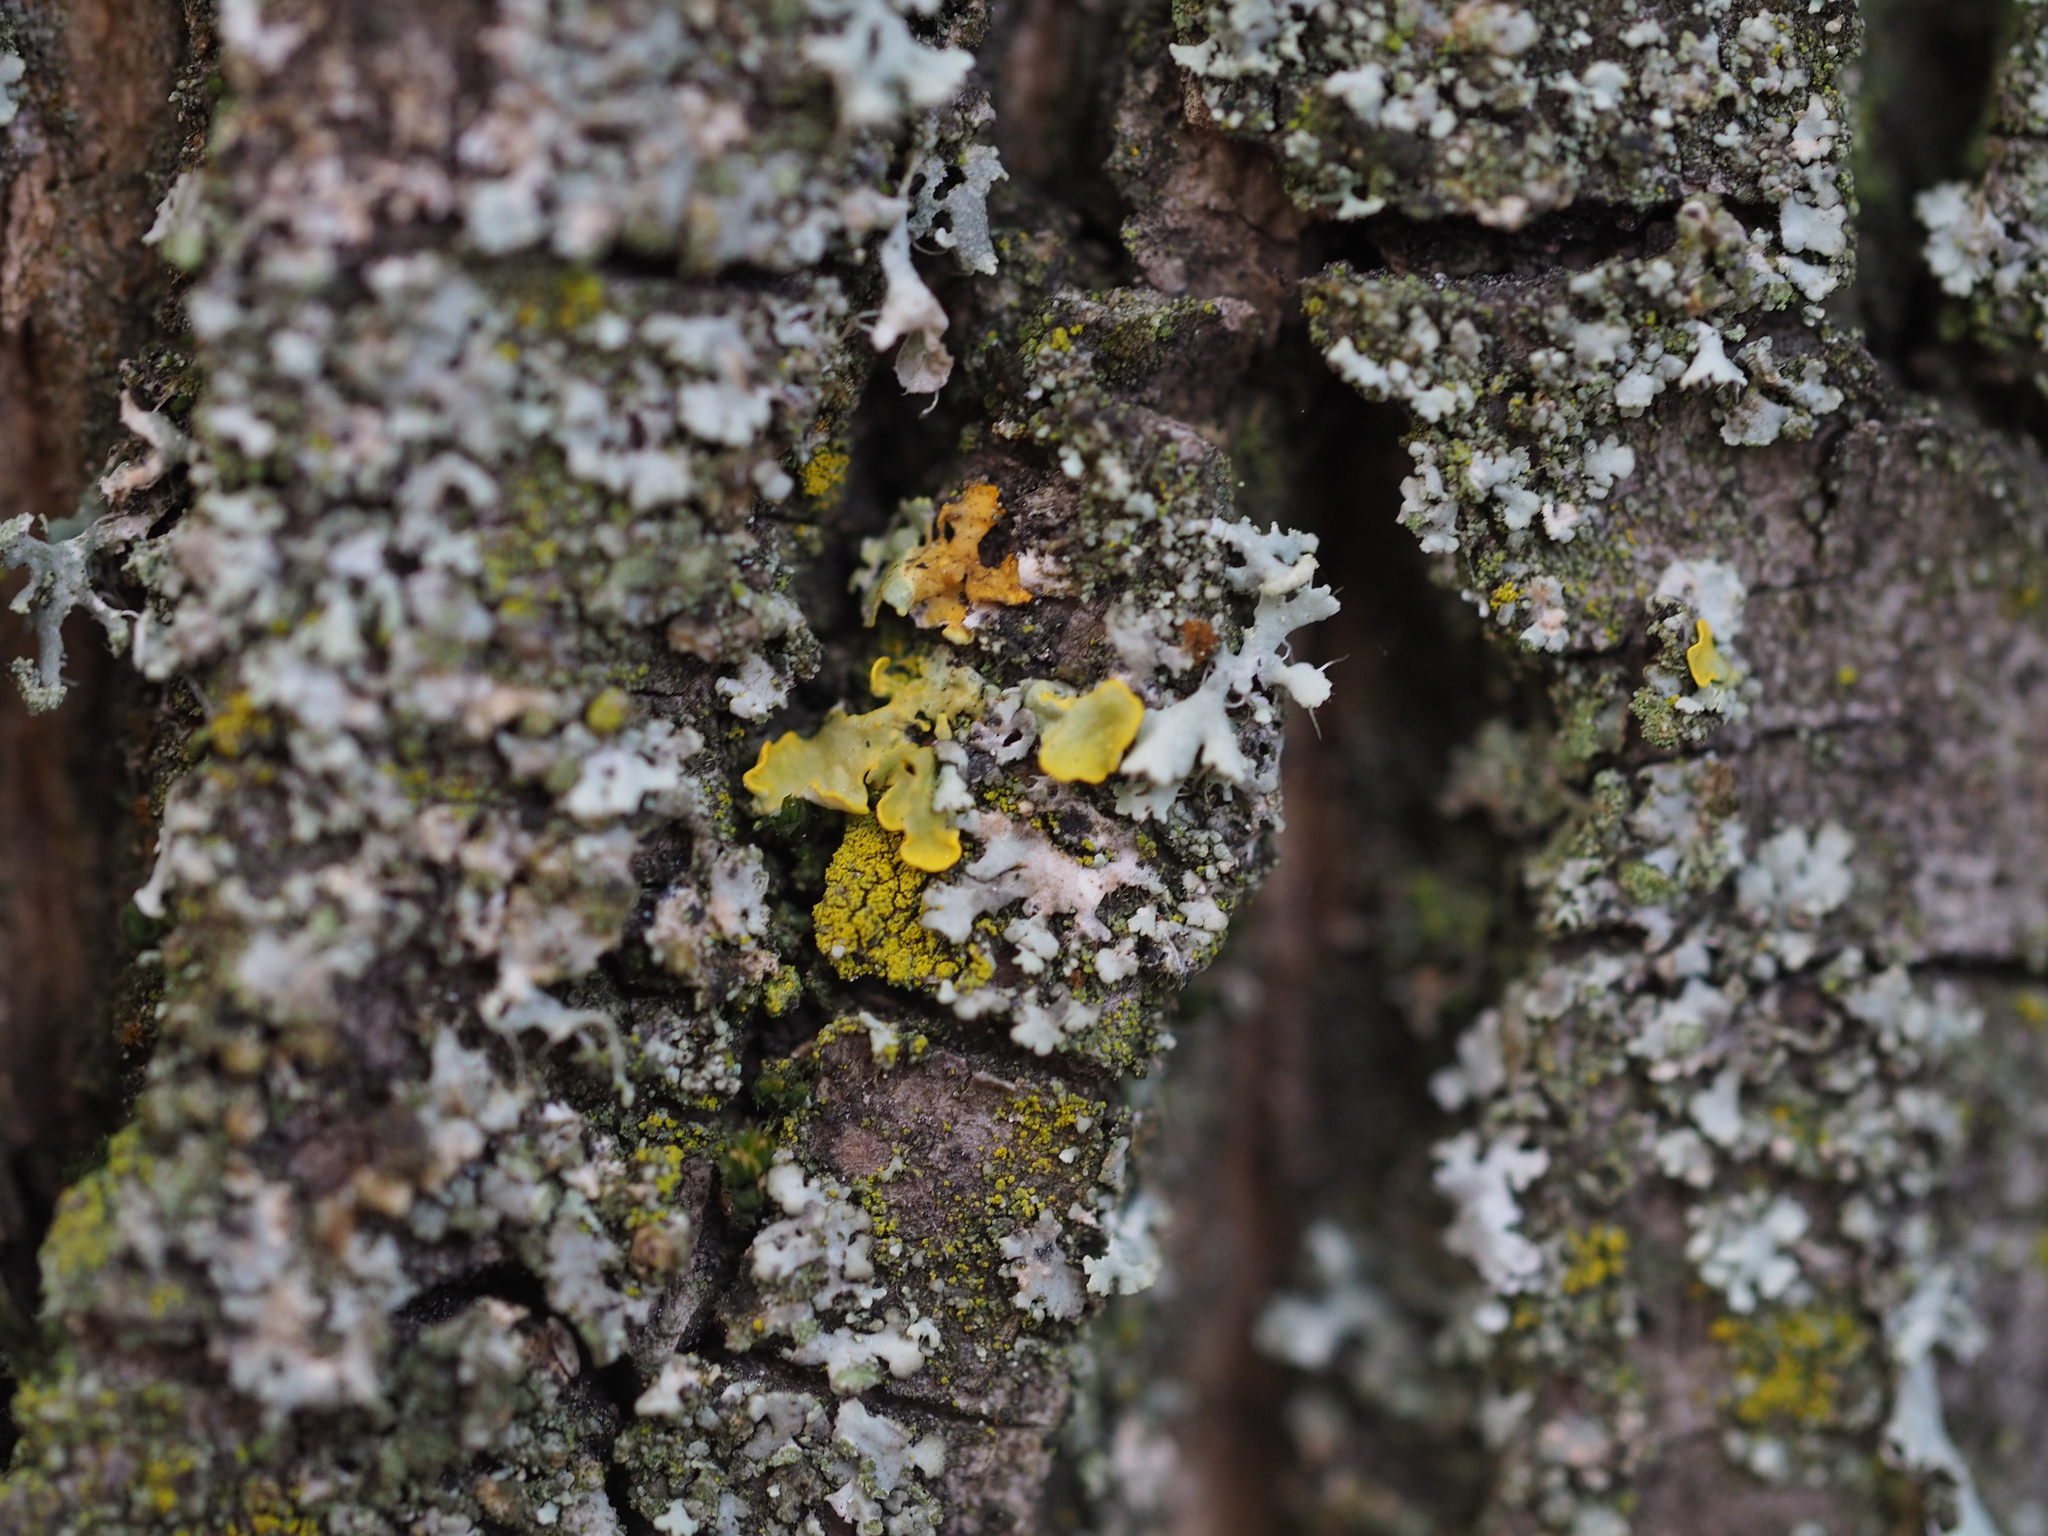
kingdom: Fungi
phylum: Ascomycota
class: Candelariomycetes
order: Candelariales
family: Candelariaceae
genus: Candelariella
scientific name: Candelariella xanthostigma
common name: Granular goldspeck lichen
